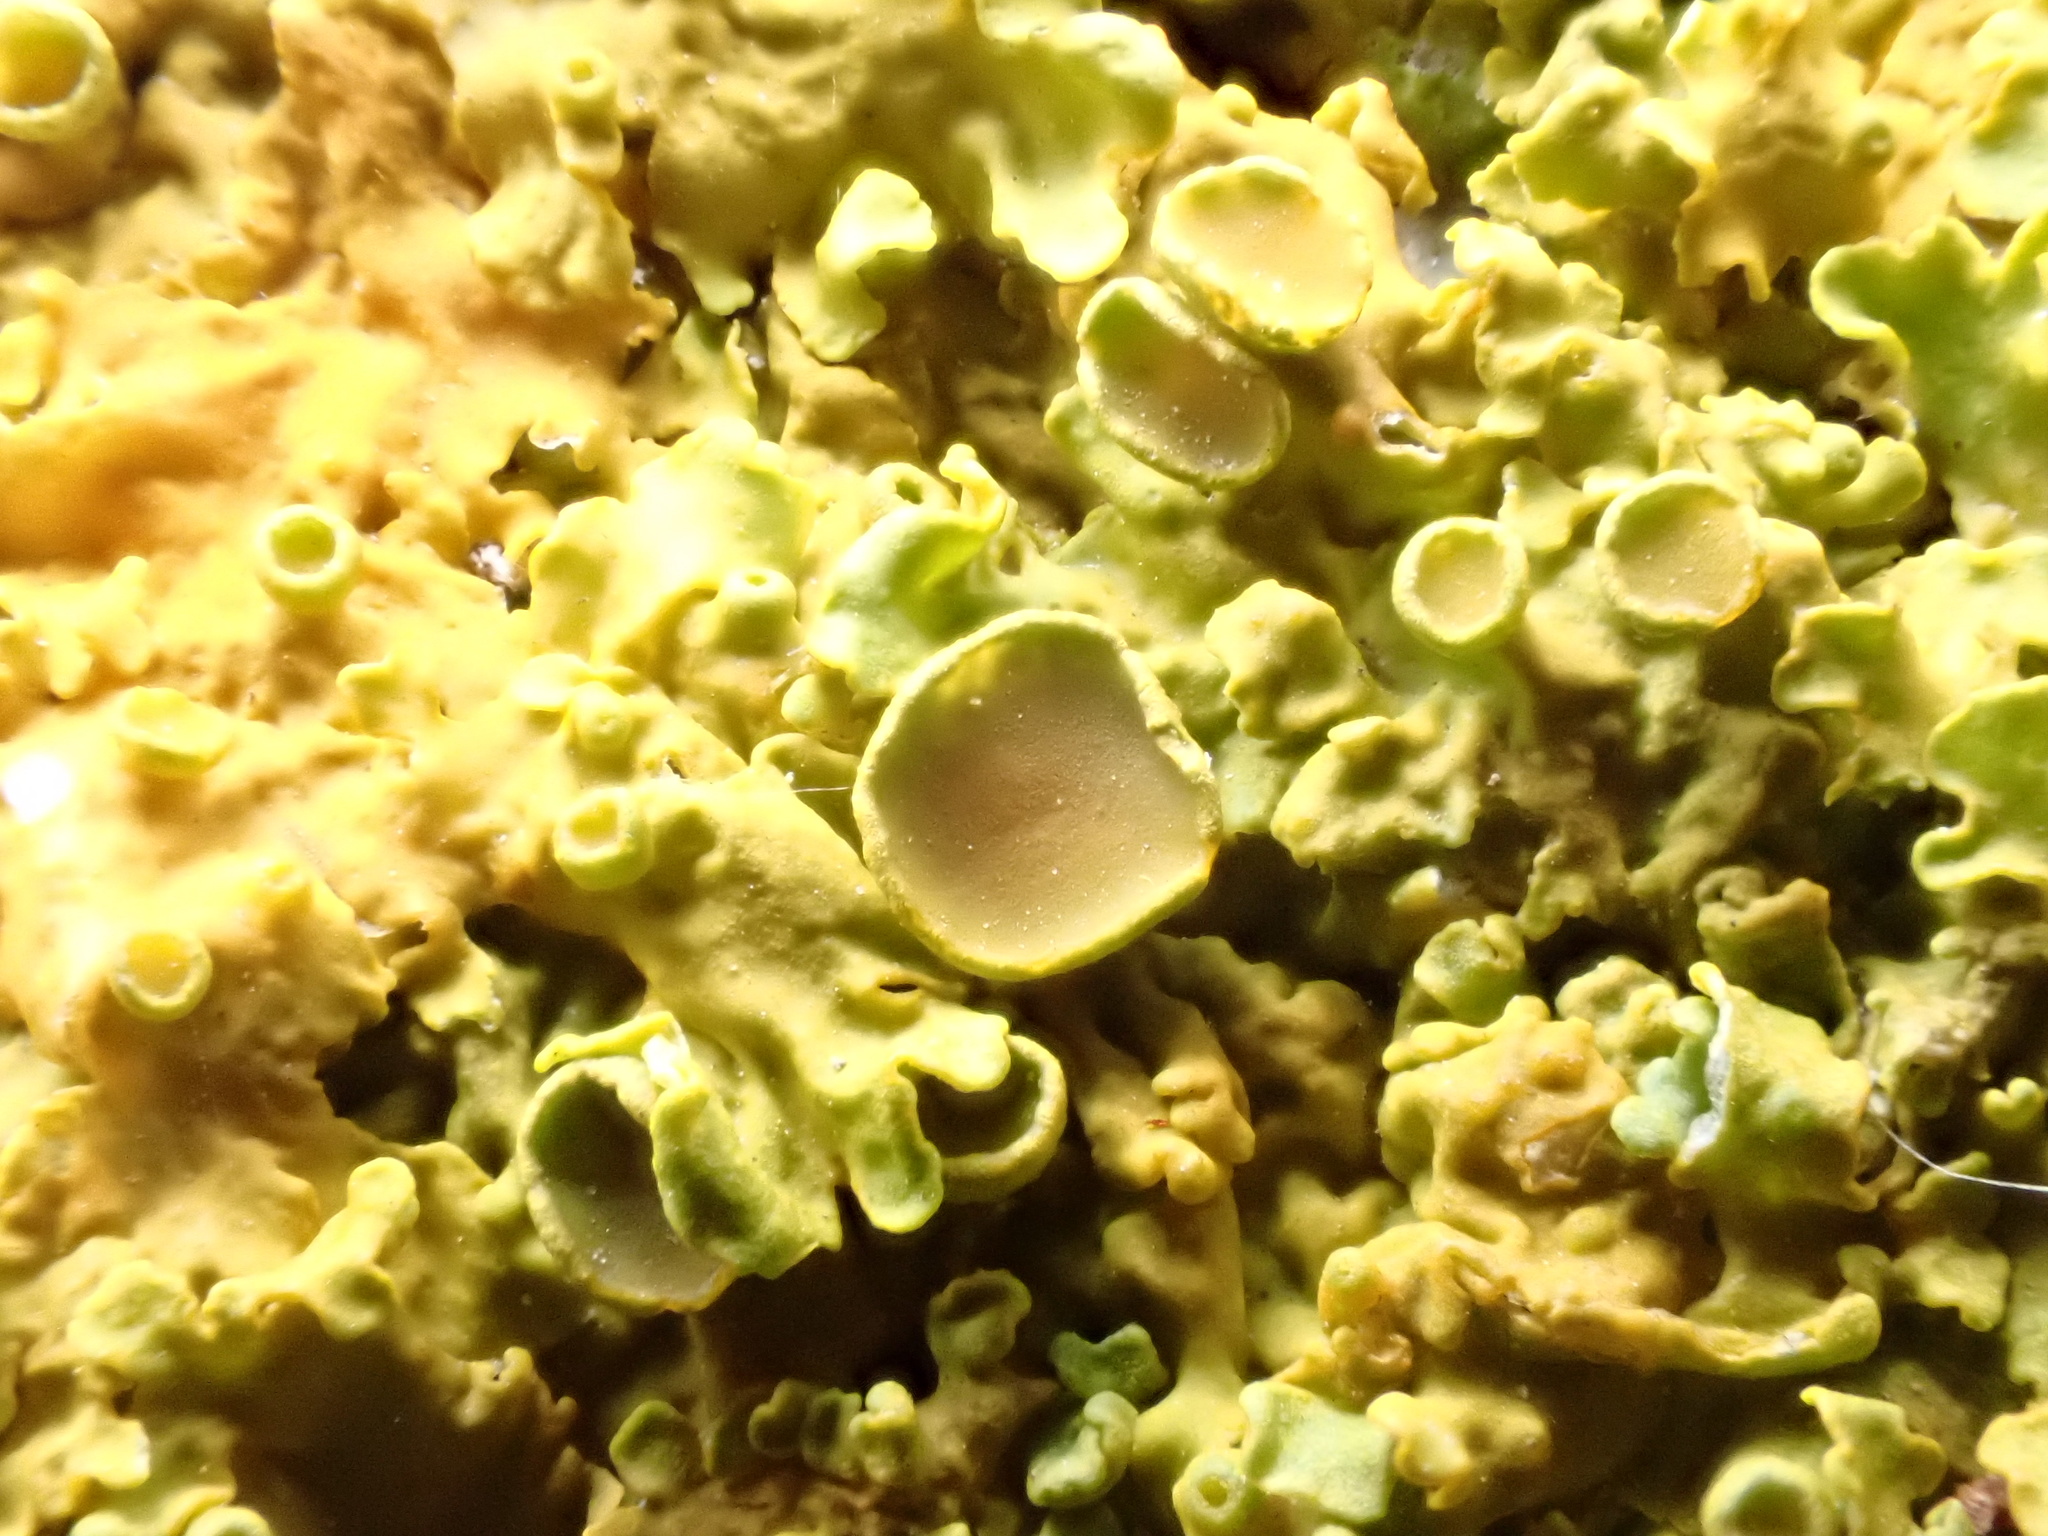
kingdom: Fungi
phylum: Ascomycota
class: Lecanoromycetes
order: Teloschistales
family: Teloschistaceae
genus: Xanthoria
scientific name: Xanthoria parietina
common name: Common orange lichen
